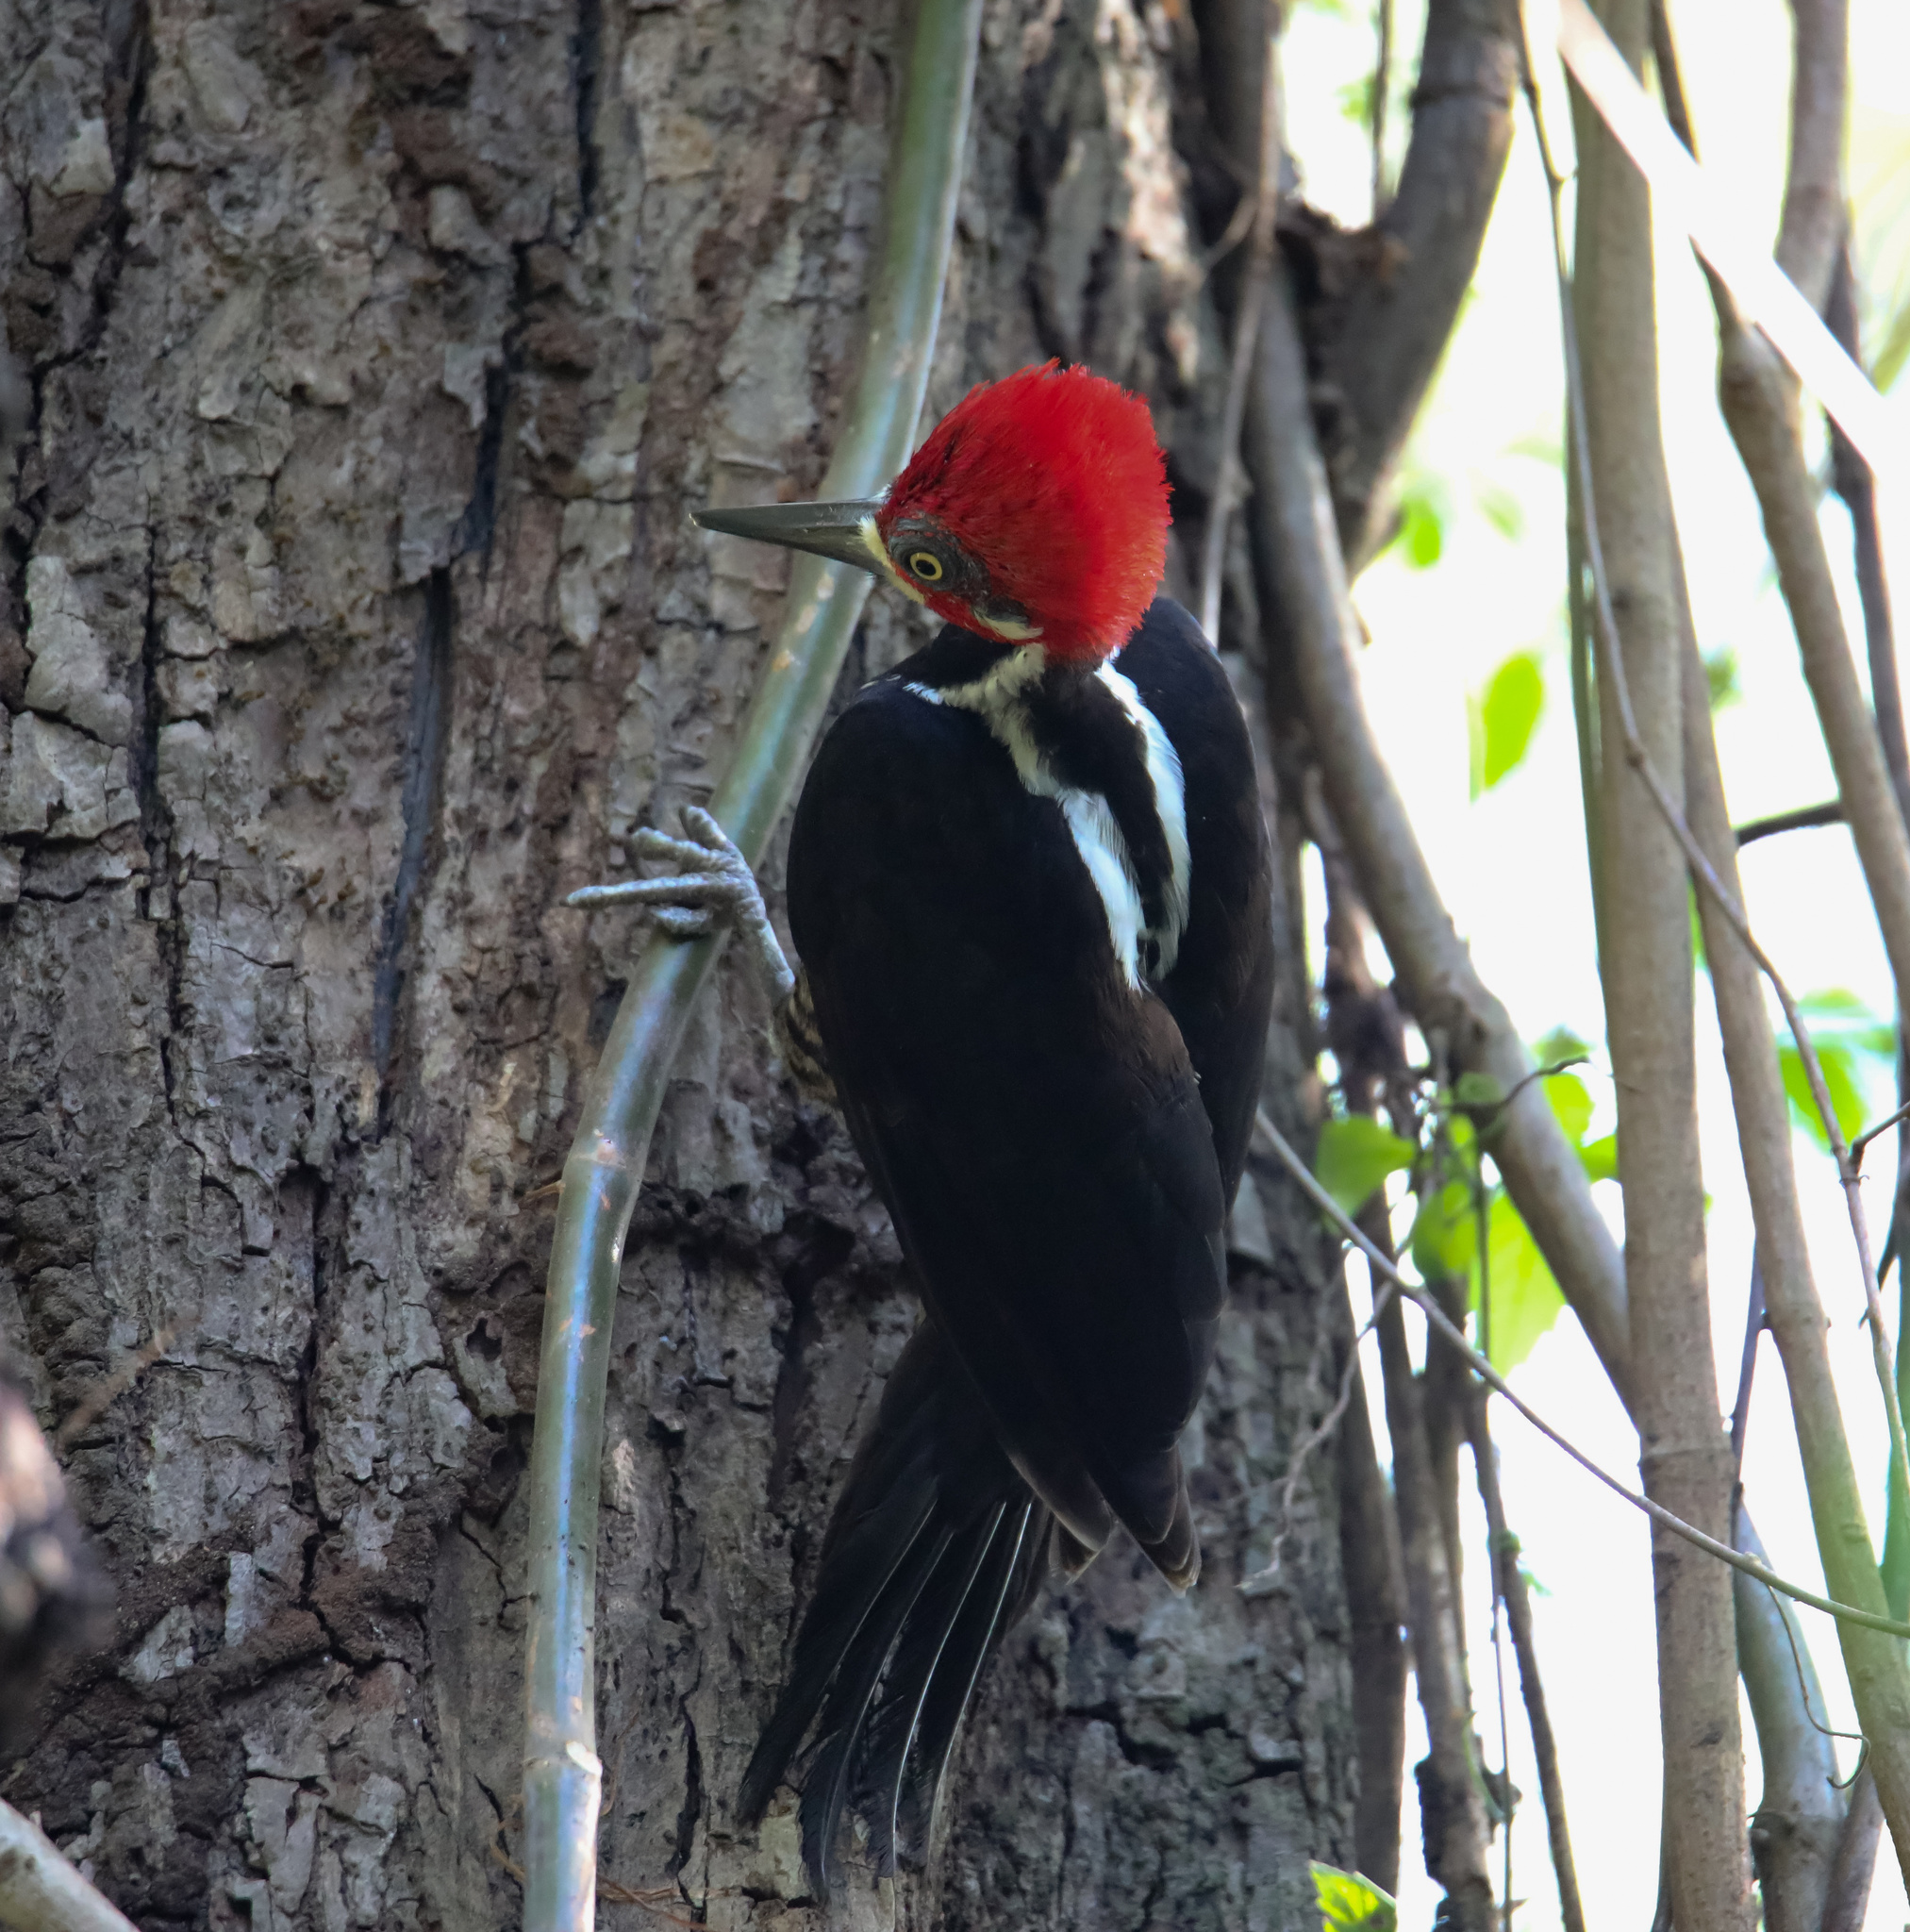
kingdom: Animalia
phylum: Chordata
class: Aves
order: Piciformes
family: Picidae
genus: Campephilus
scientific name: Campephilus melanoleucos
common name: Crimson-crested woodpecker
